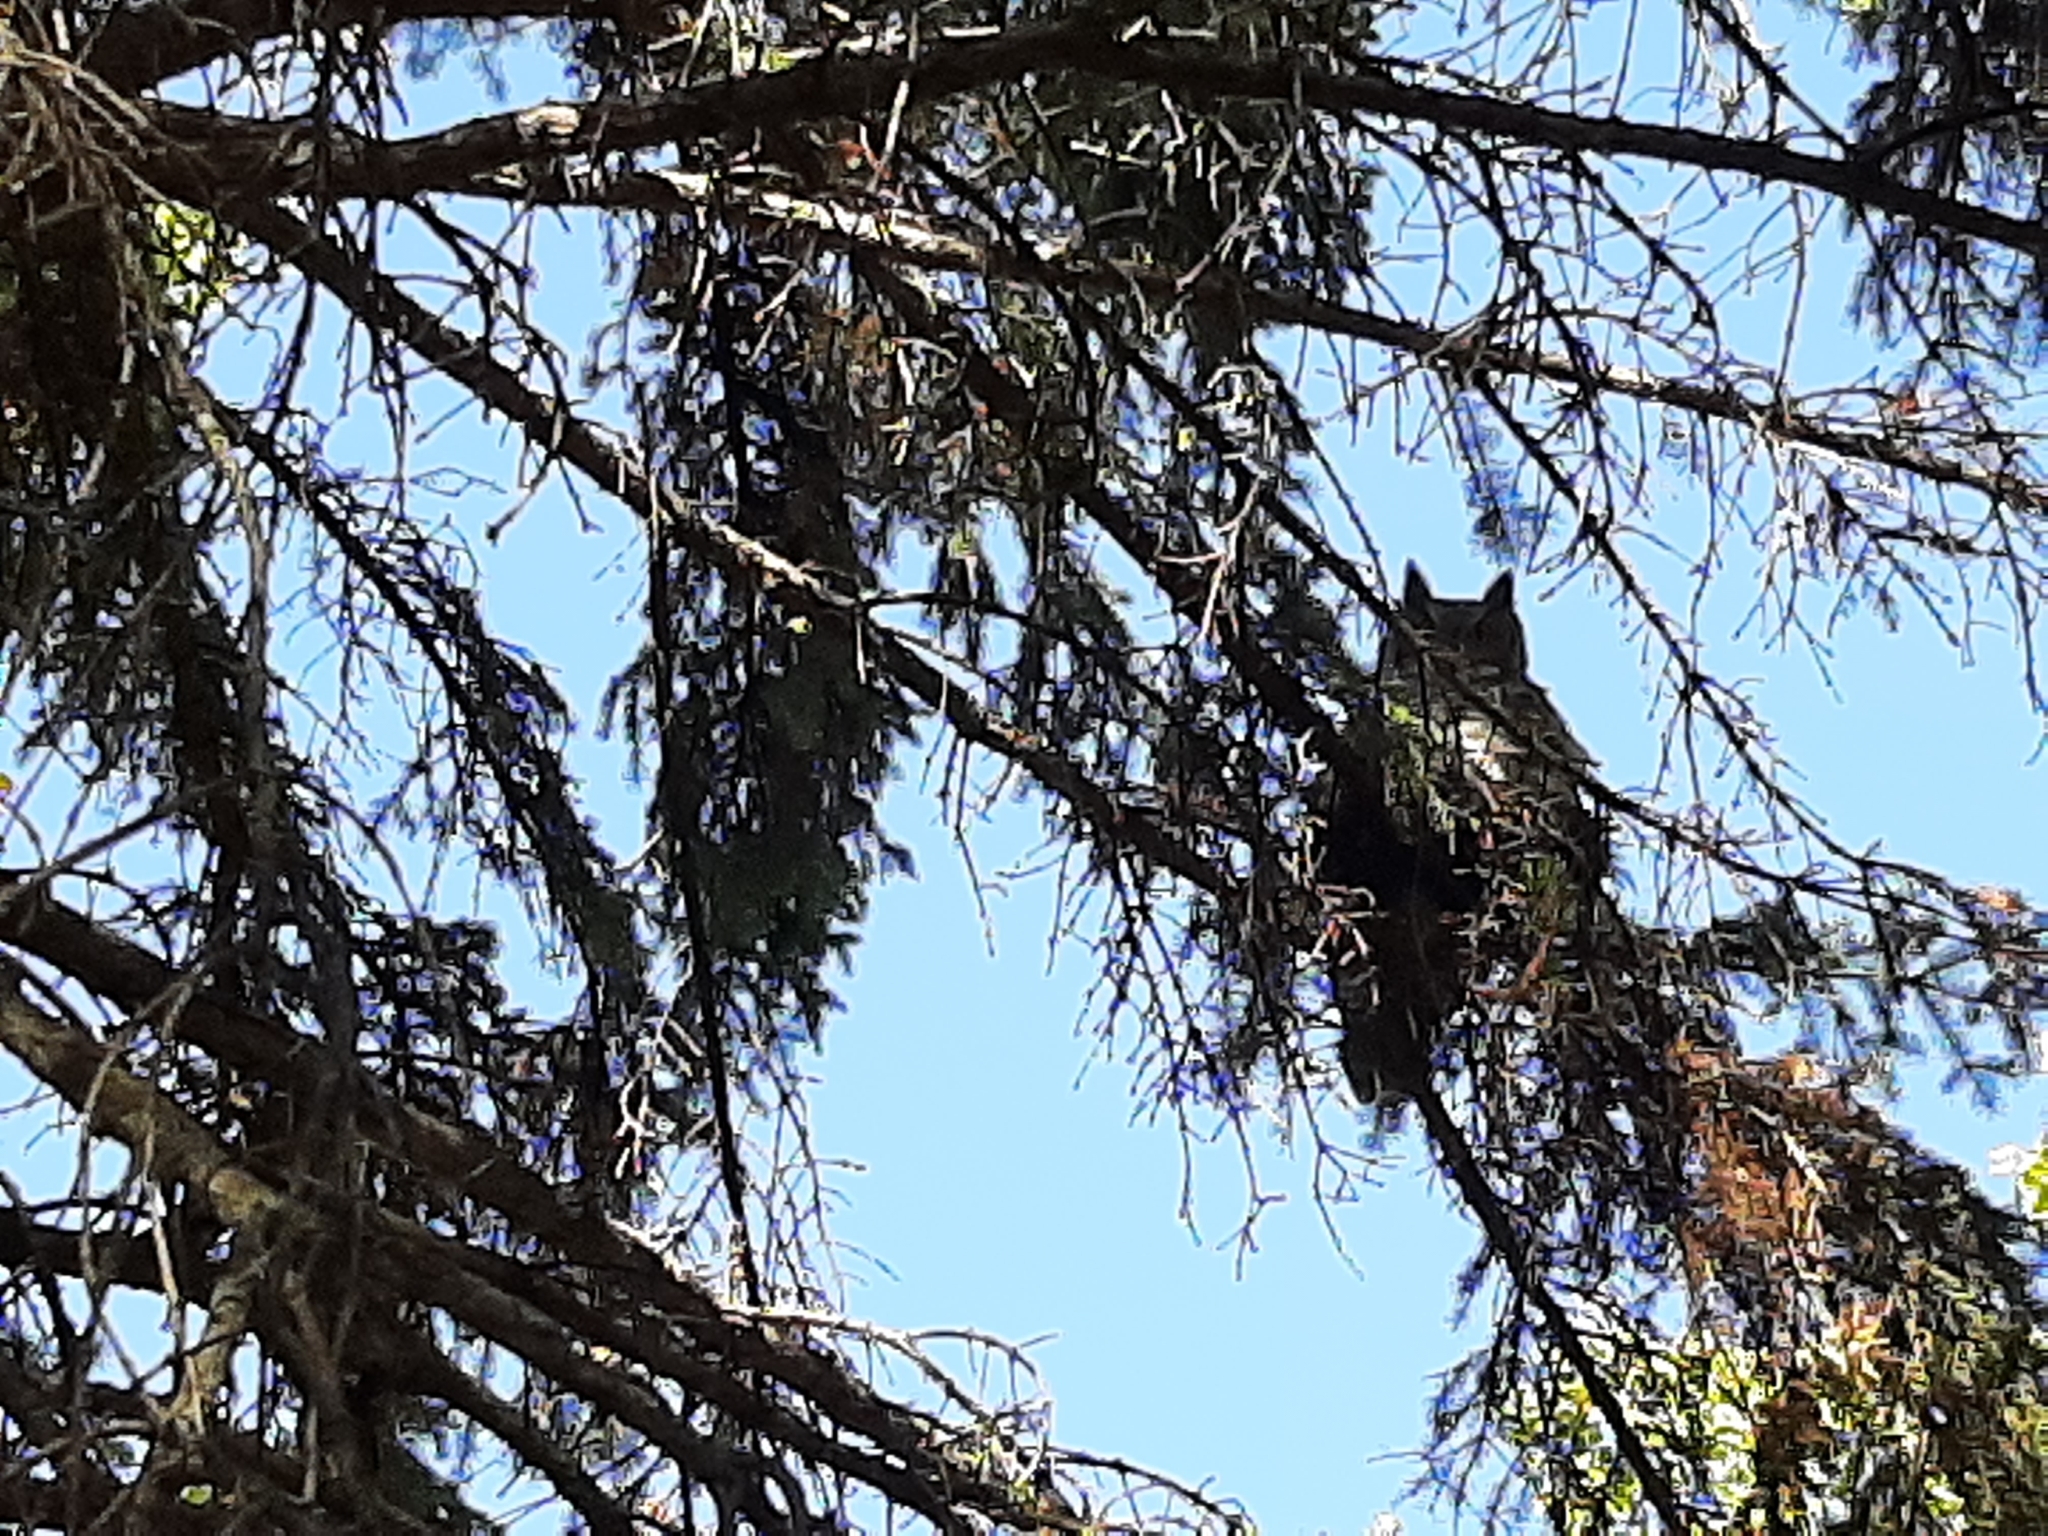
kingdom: Animalia
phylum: Chordata
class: Aves
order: Strigiformes
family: Strigidae
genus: Bubo
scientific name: Bubo virginianus
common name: Great horned owl
